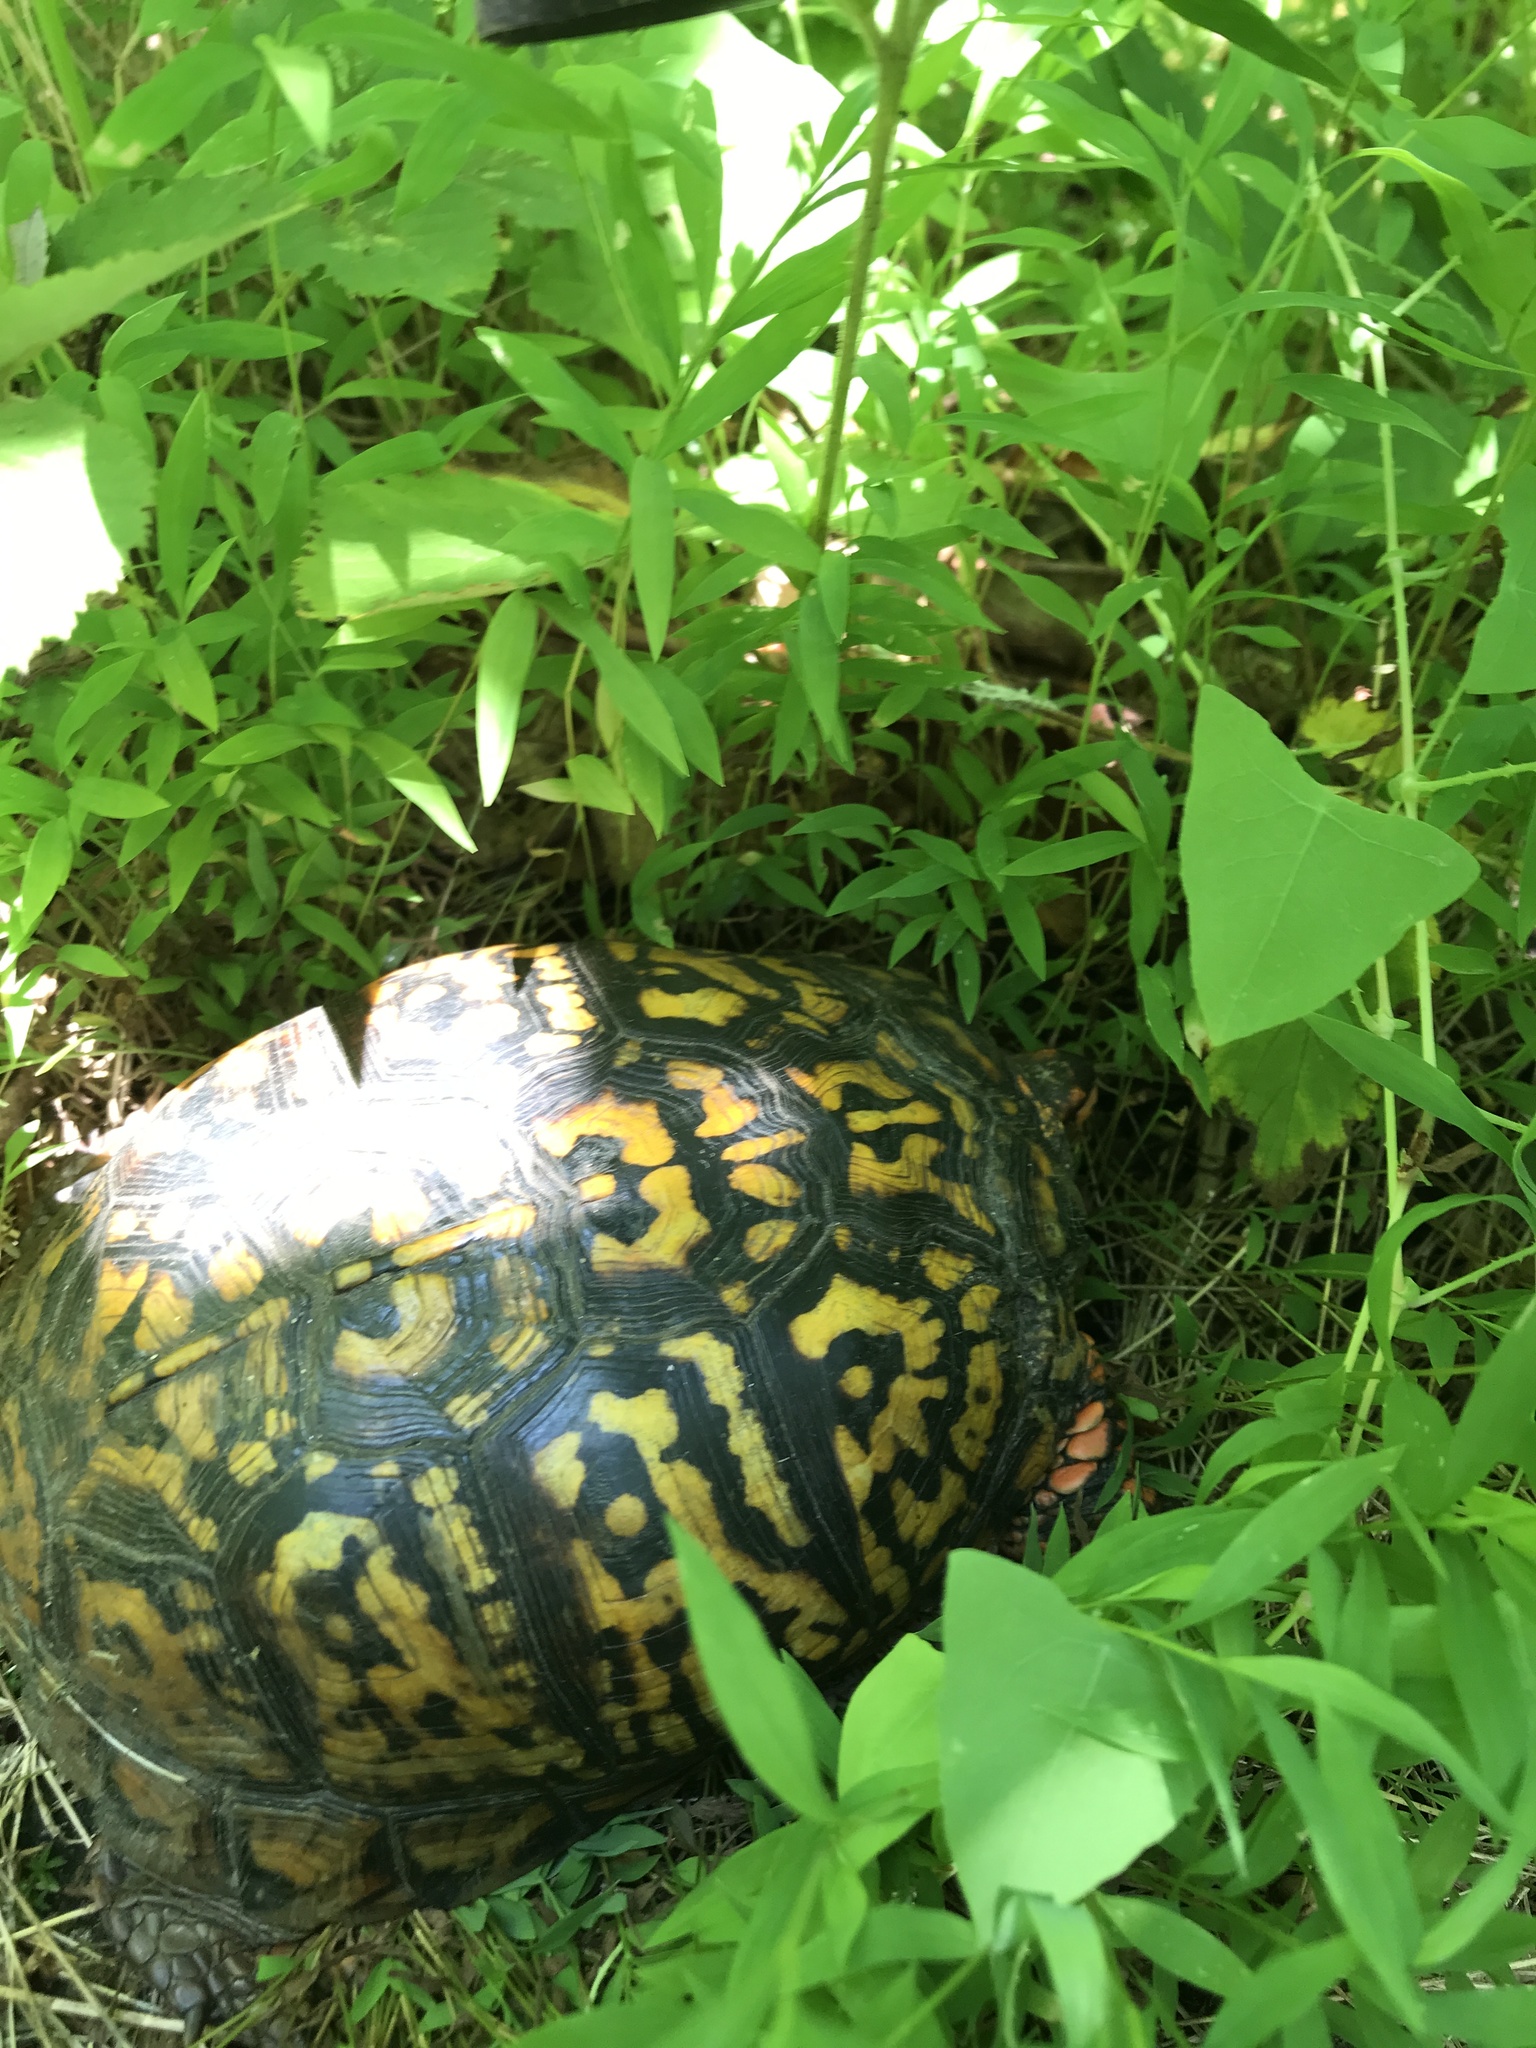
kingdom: Animalia
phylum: Chordata
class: Testudines
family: Emydidae
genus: Terrapene
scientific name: Terrapene carolina
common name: Common box turtle
